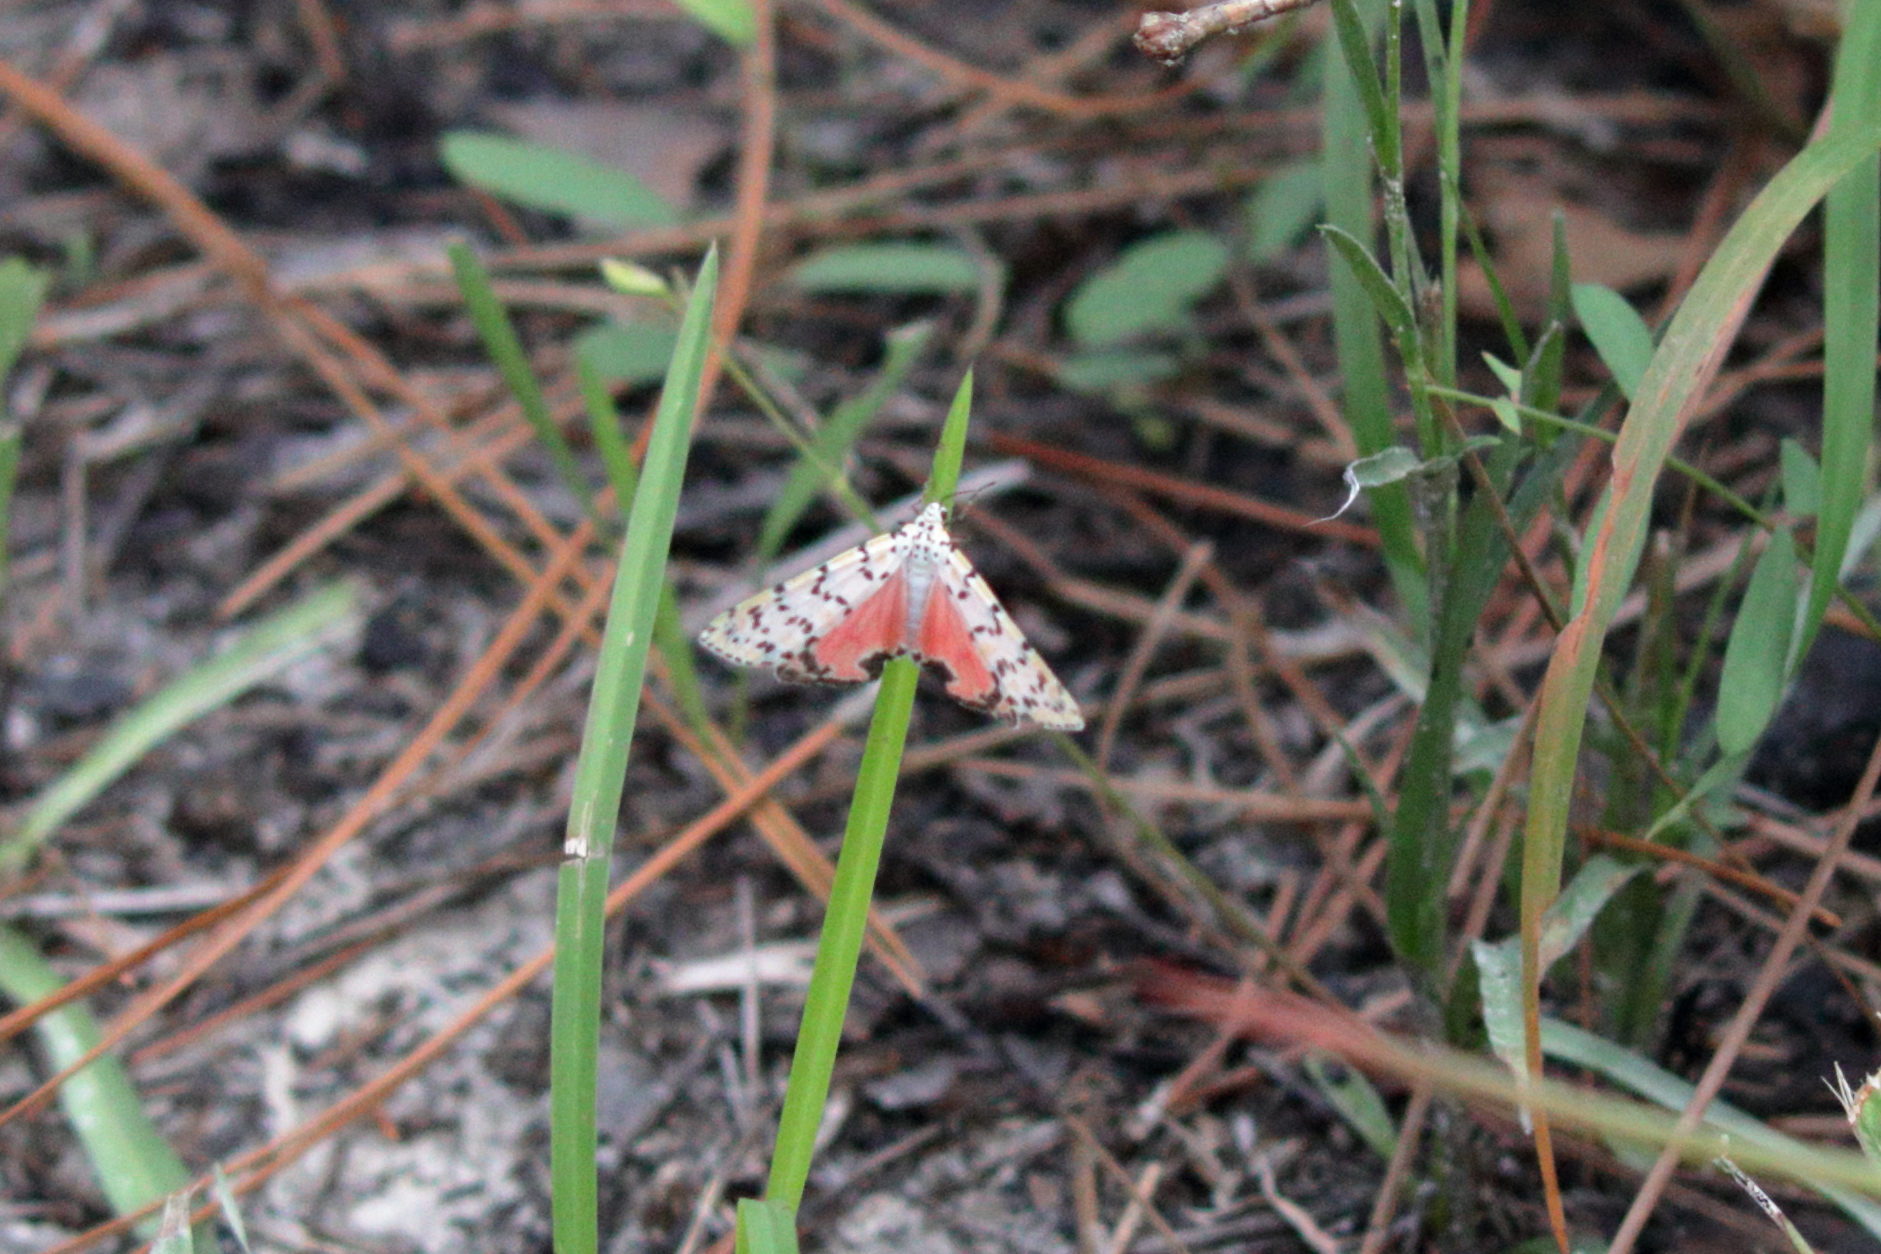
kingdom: Animalia
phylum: Arthropoda
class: Insecta
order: Lepidoptera
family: Erebidae
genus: Utetheisa
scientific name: Utetheisa ornatrix
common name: Beautiful utetheisa
